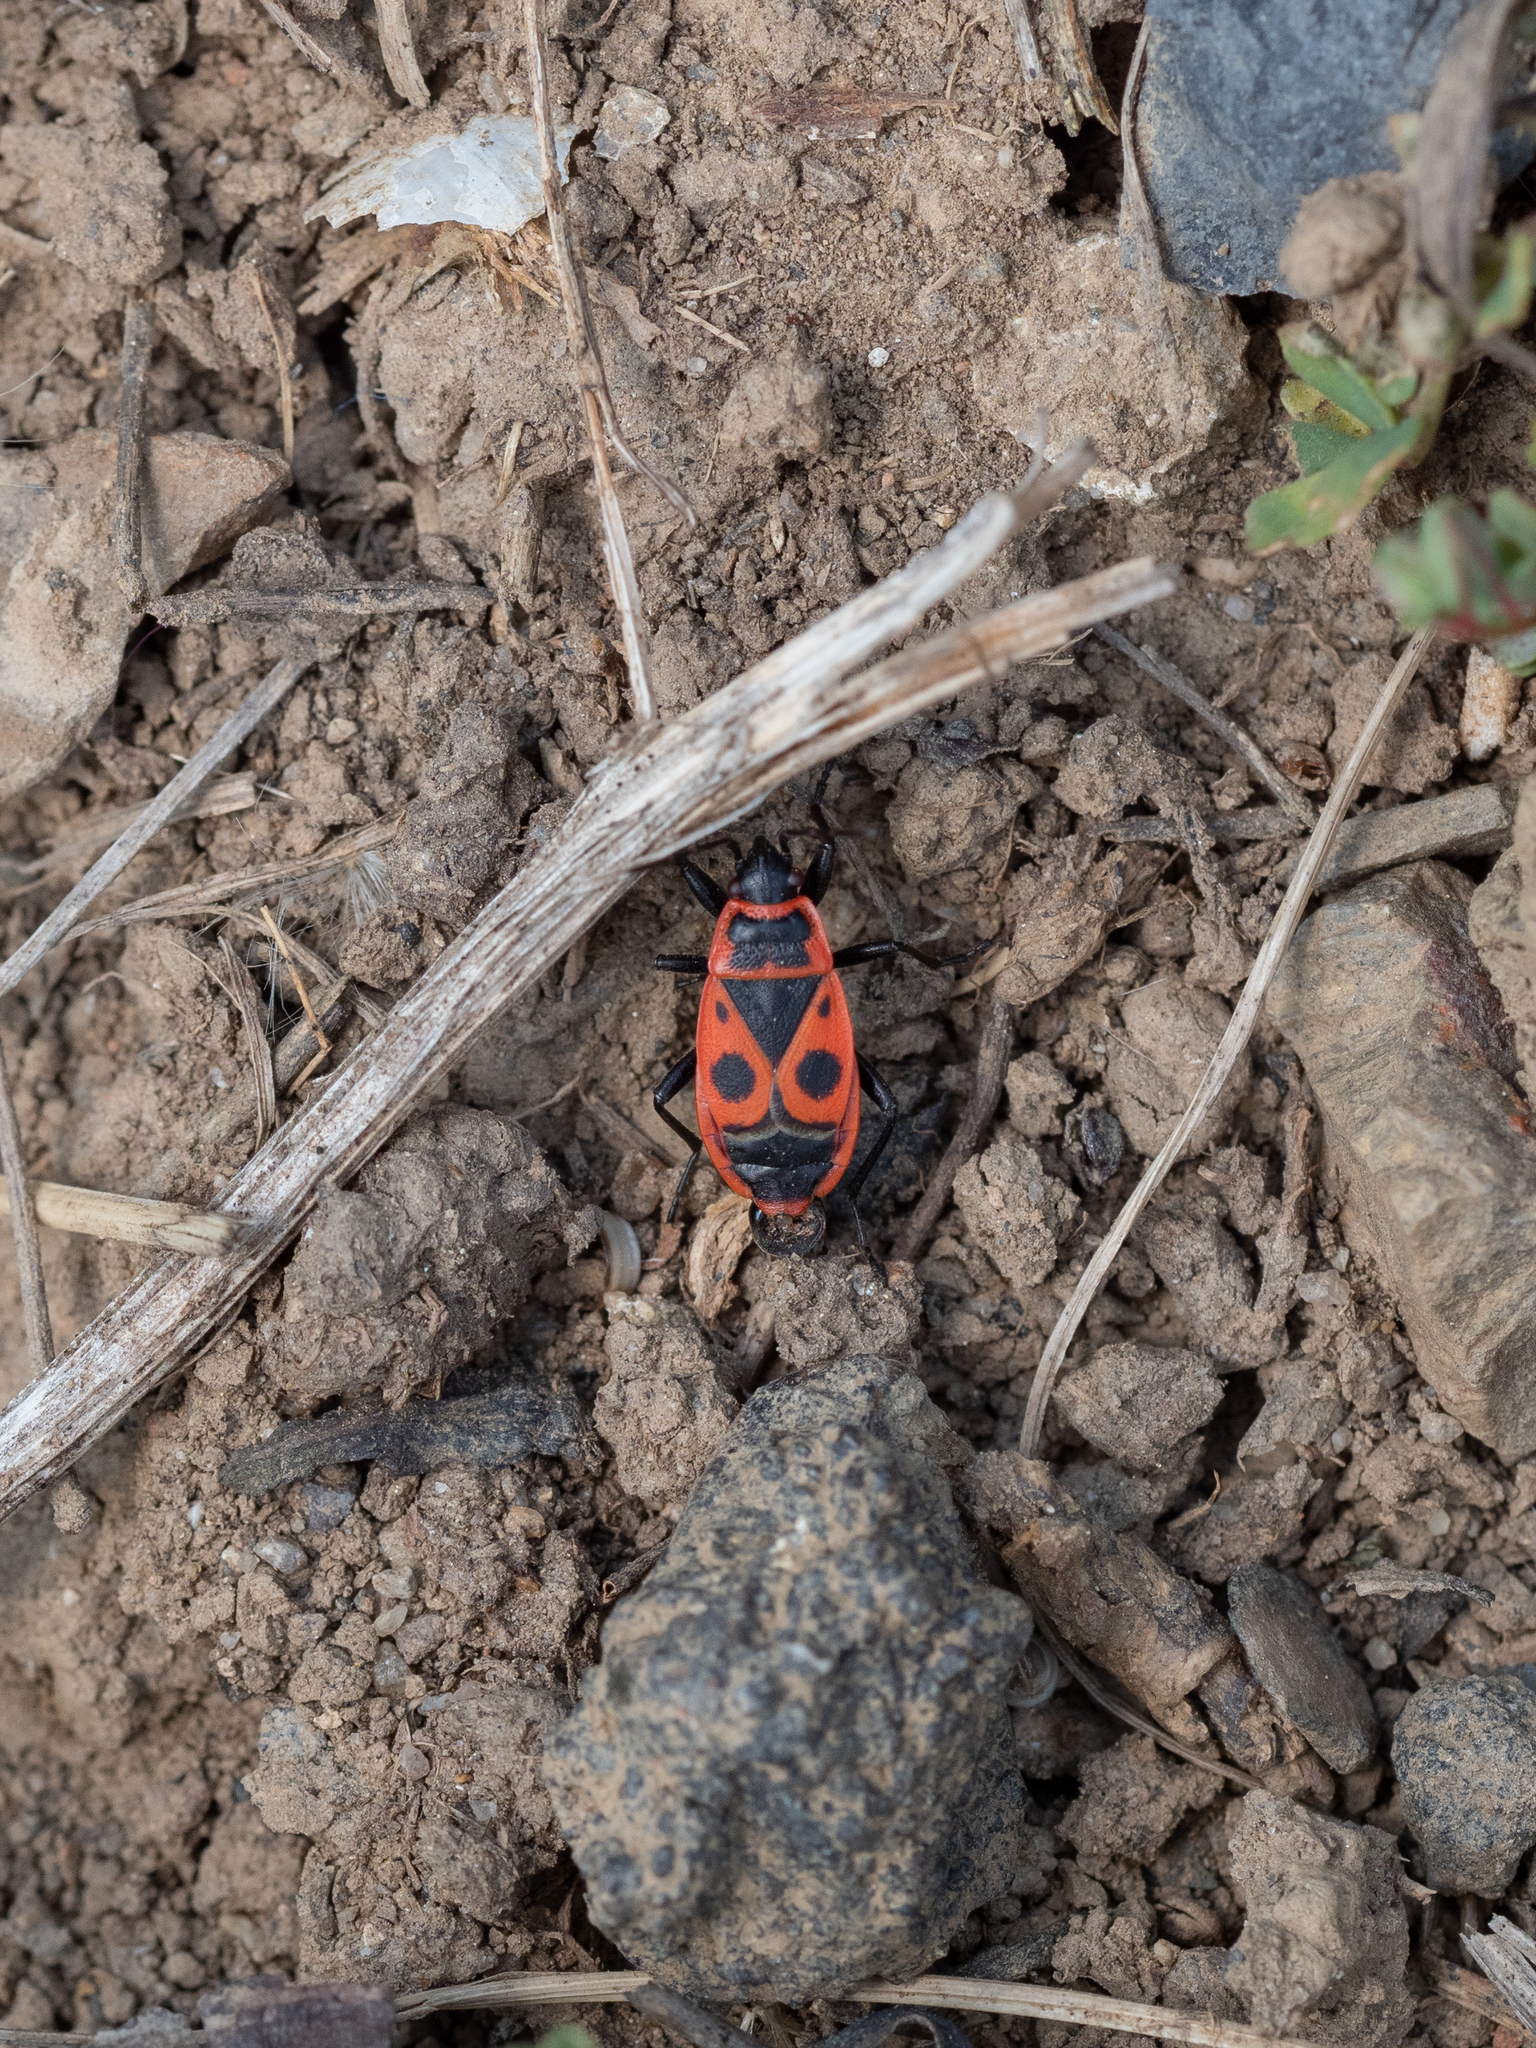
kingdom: Animalia
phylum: Arthropoda
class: Insecta
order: Hemiptera
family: Pyrrhocoridae
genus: Pyrrhocoris
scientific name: Pyrrhocoris apterus
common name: Firebug
